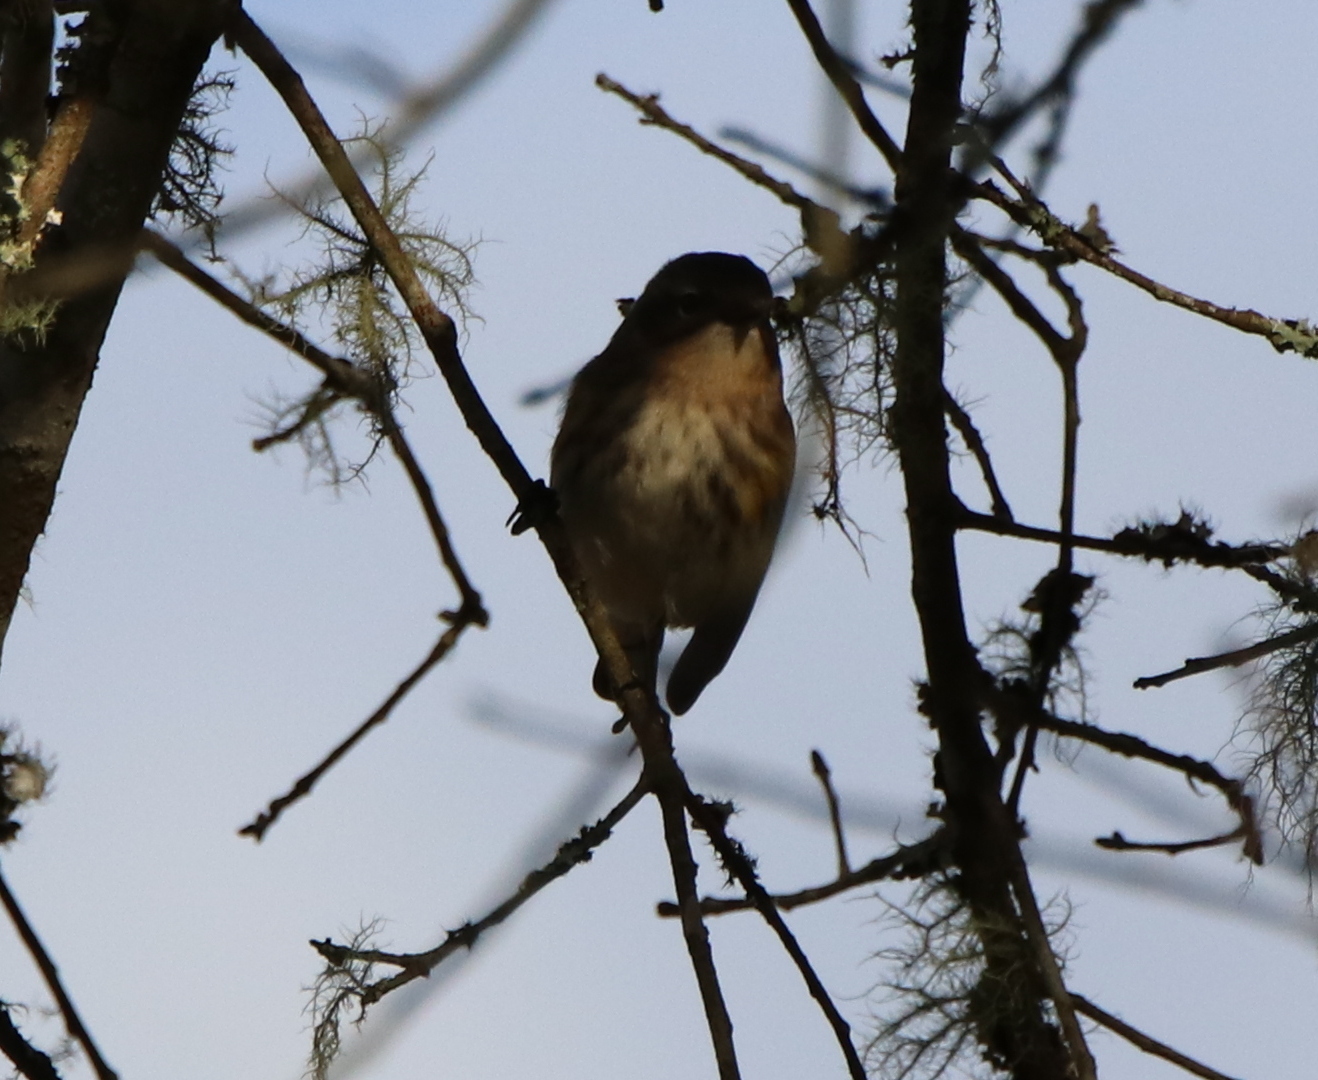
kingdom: Animalia
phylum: Chordata
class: Aves
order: Passeriformes
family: Parulidae
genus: Setophaga
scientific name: Setophaga coronata
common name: Myrtle warbler
